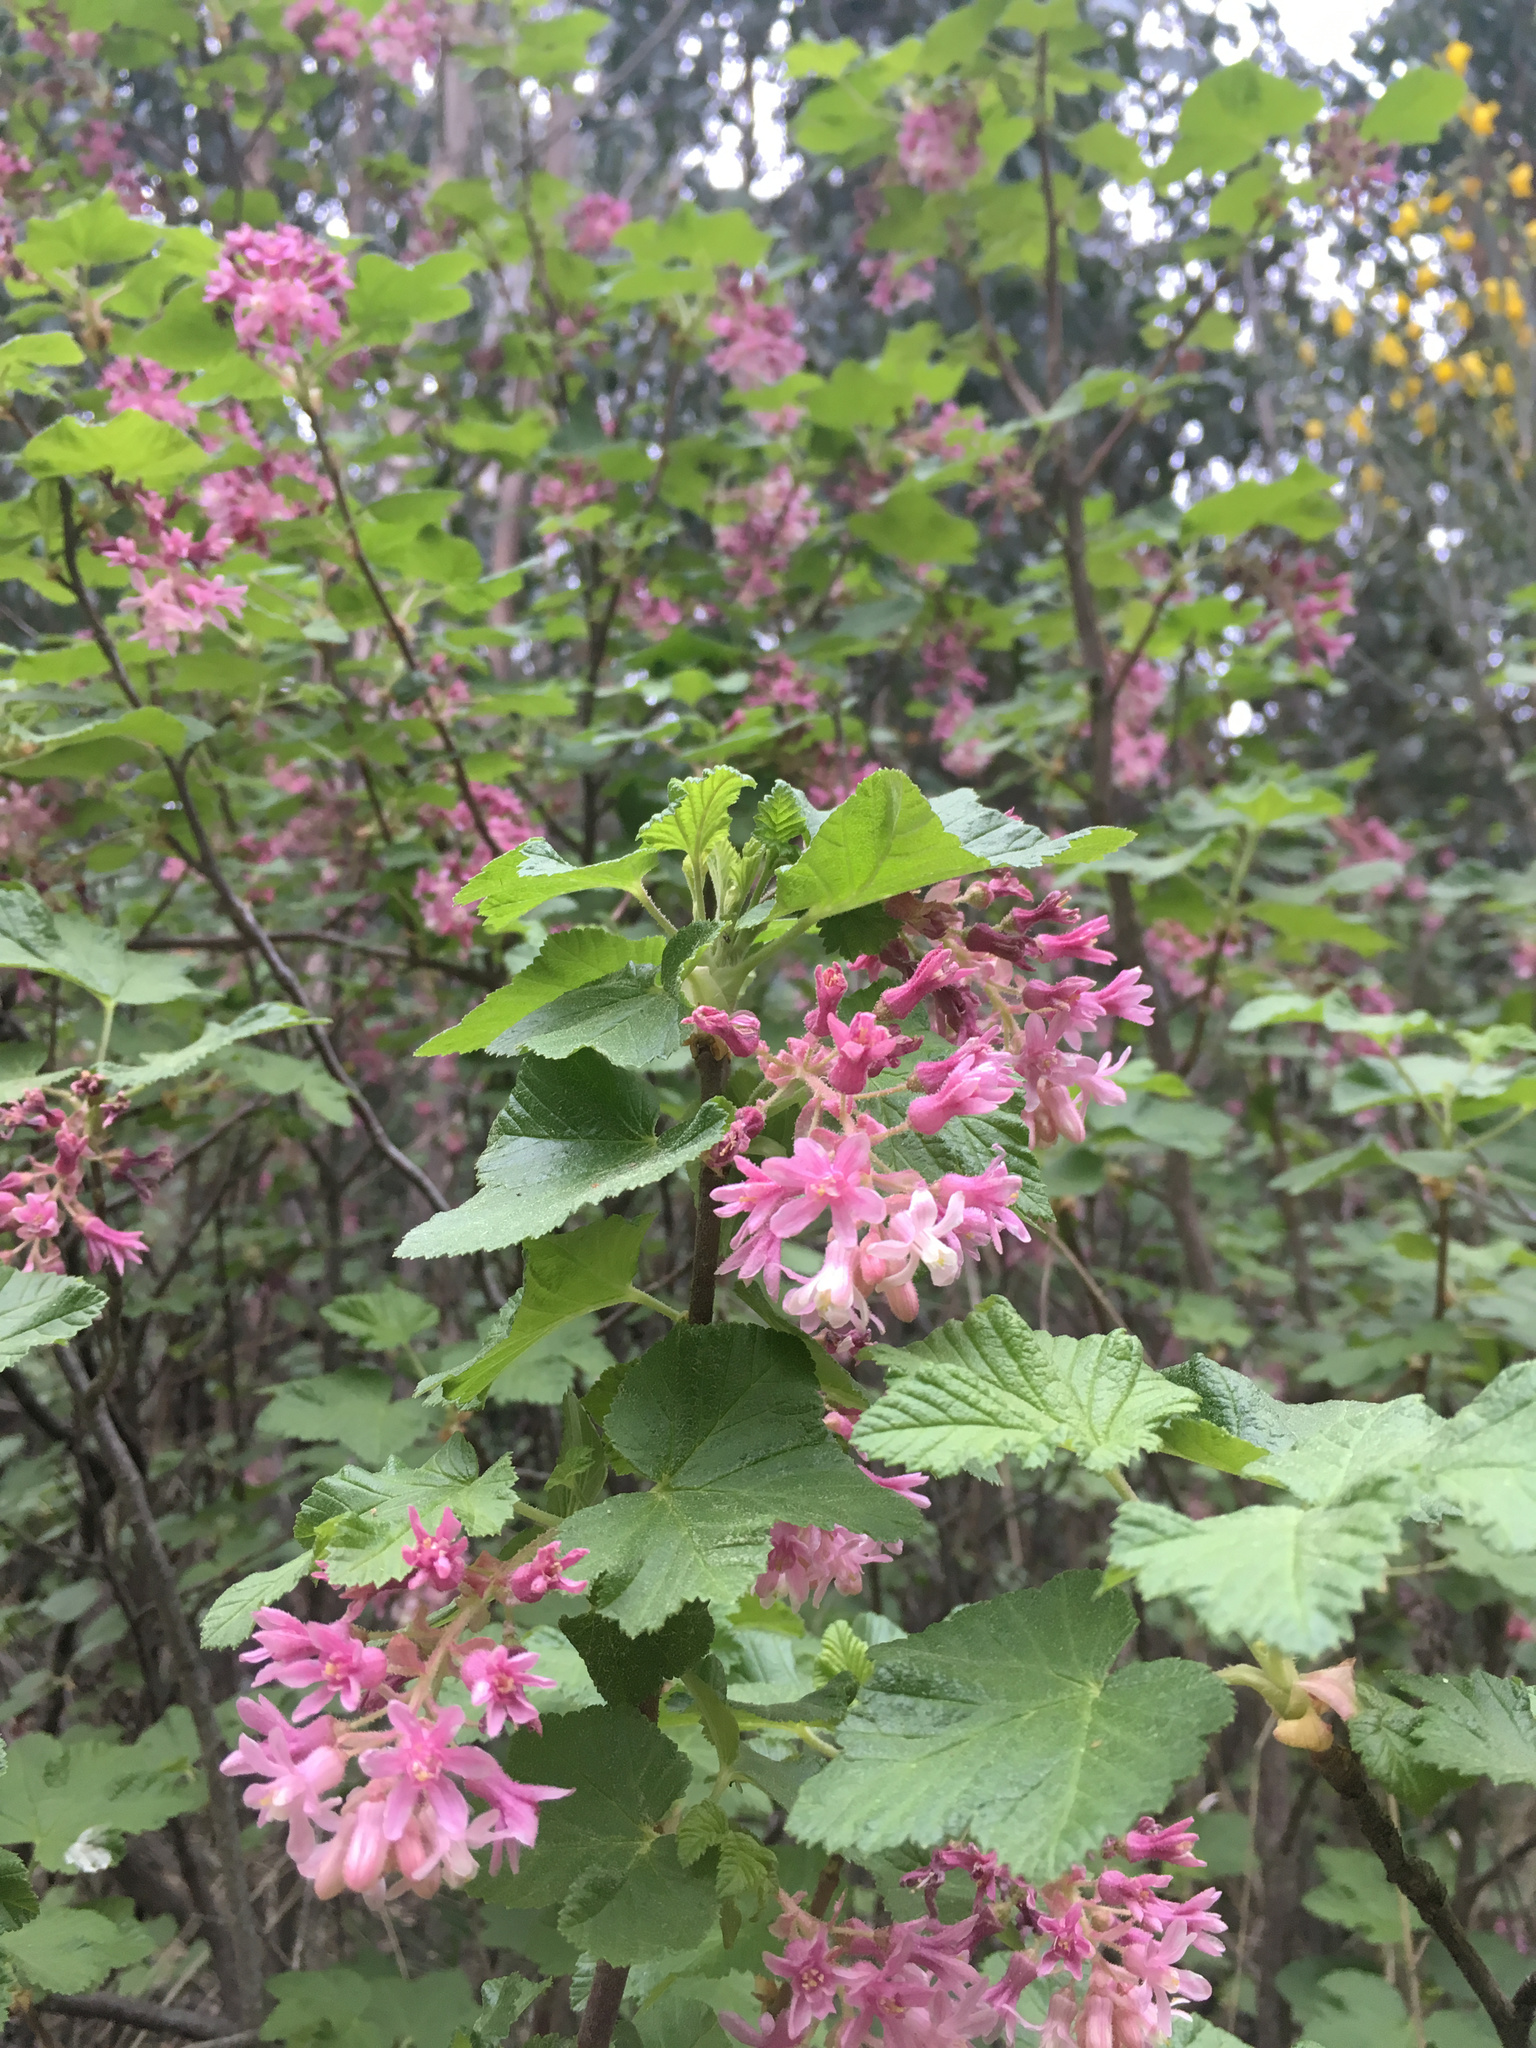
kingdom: Plantae
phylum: Tracheophyta
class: Magnoliopsida
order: Saxifragales
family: Grossulariaceae
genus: Ribes
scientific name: Ribes sanguineum
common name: Flowering currant
